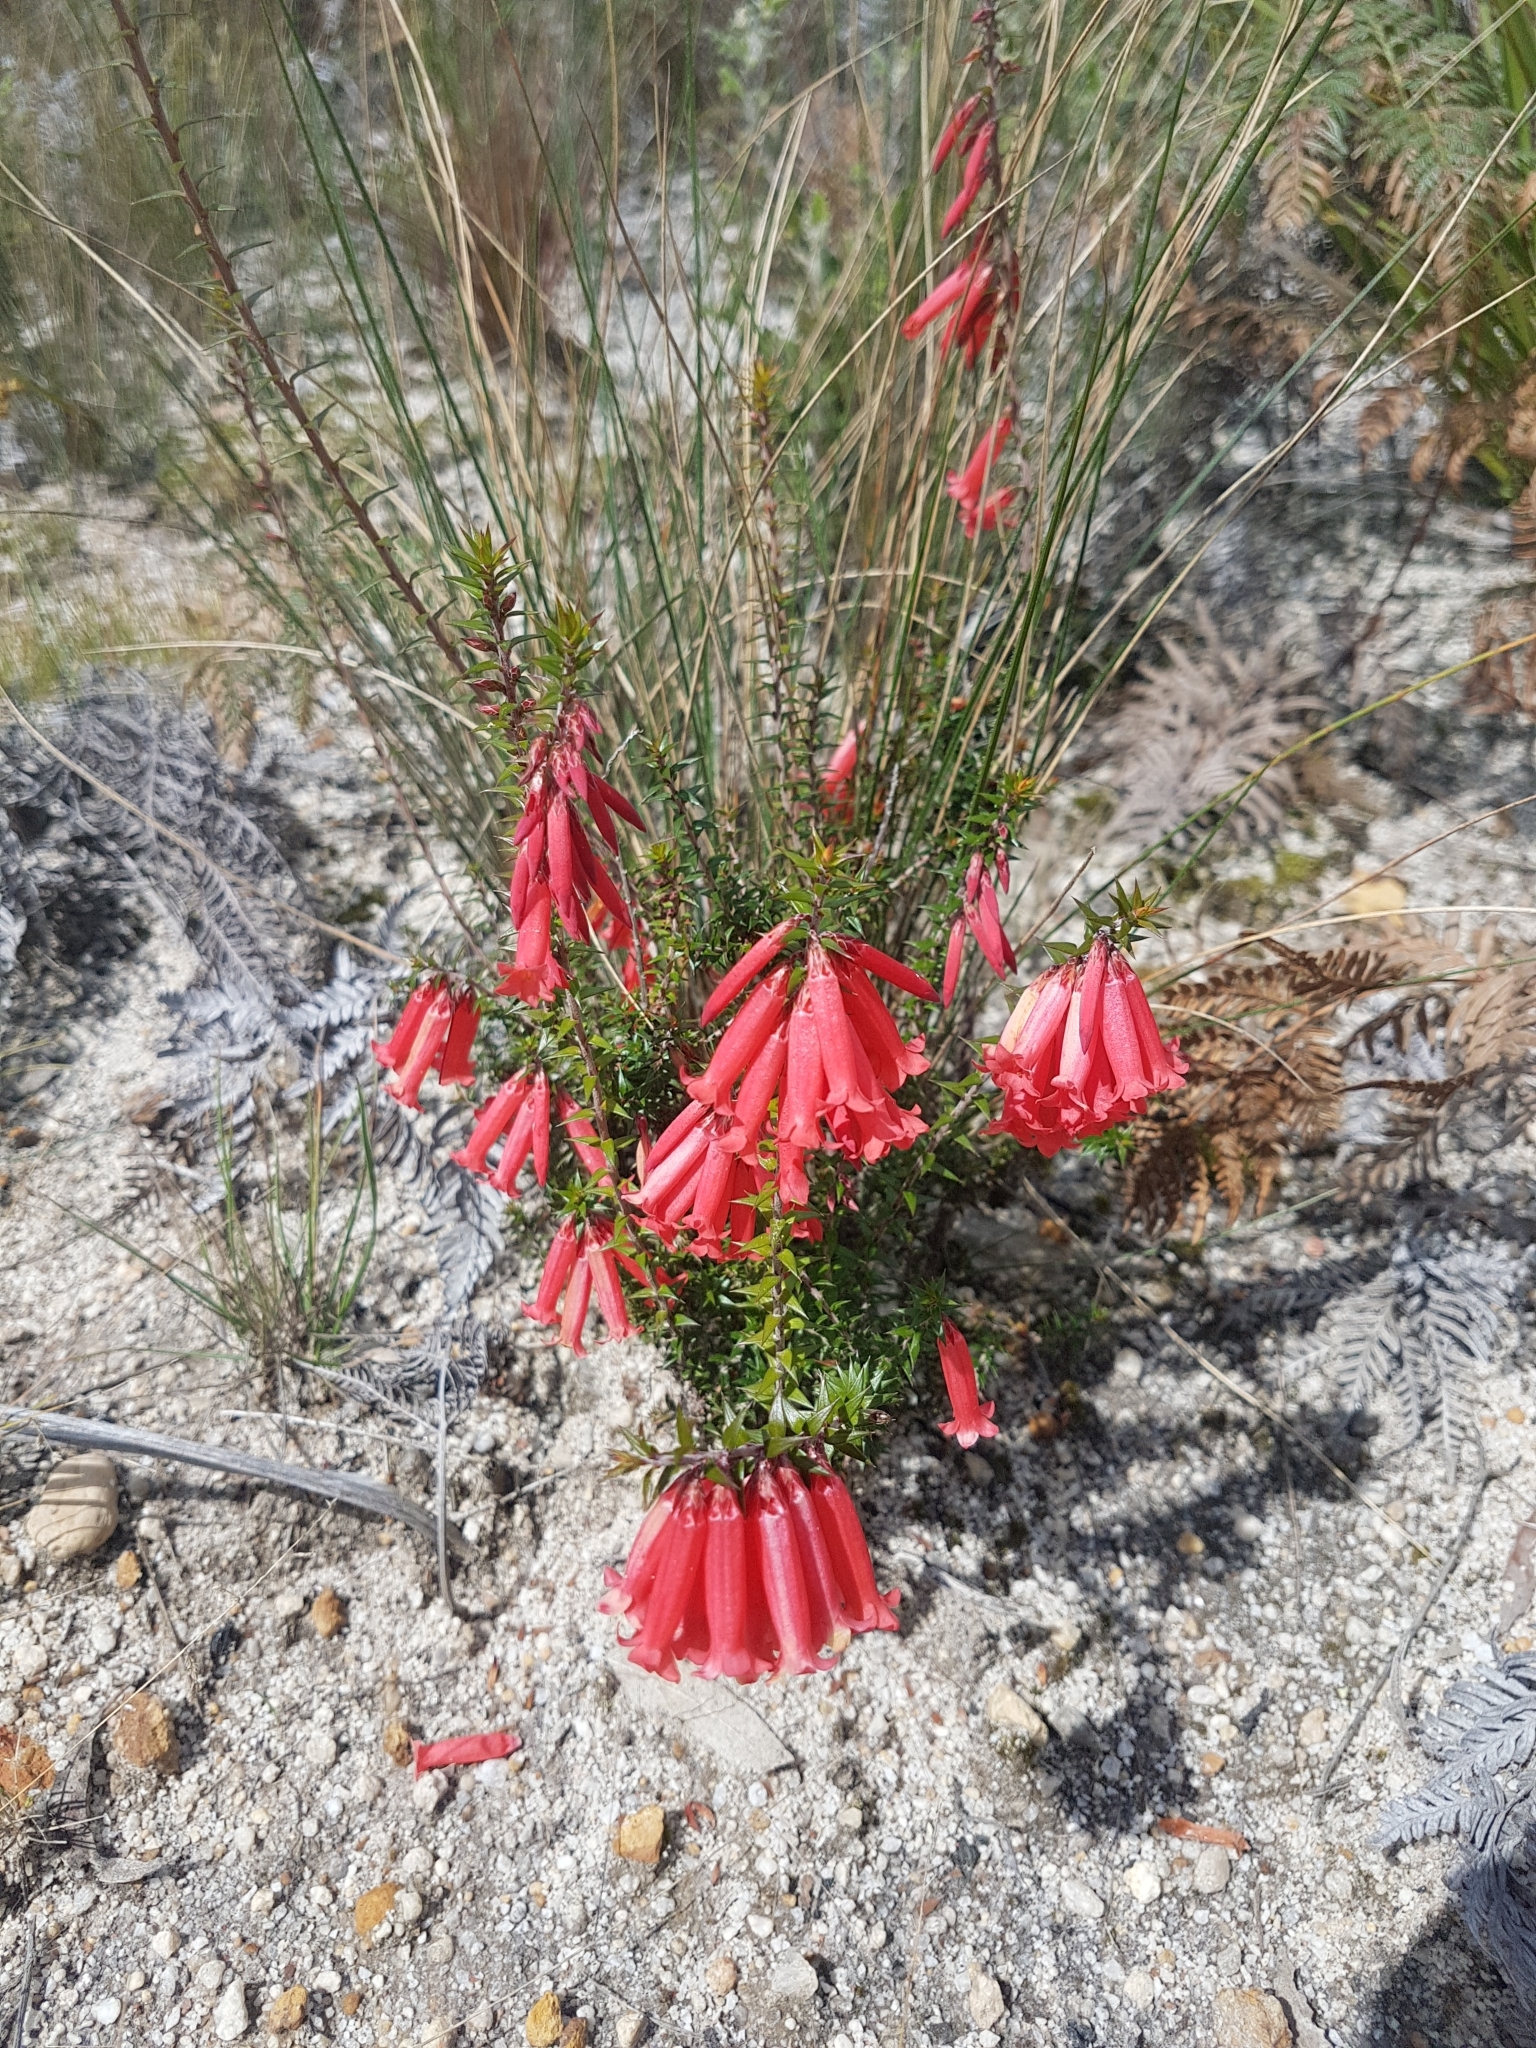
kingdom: Plantae
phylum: Tracheophyta
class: Magnoliopsida
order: Ericales
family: Ericaceae
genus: Epacris
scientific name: Epacris impressa
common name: Common-heath
